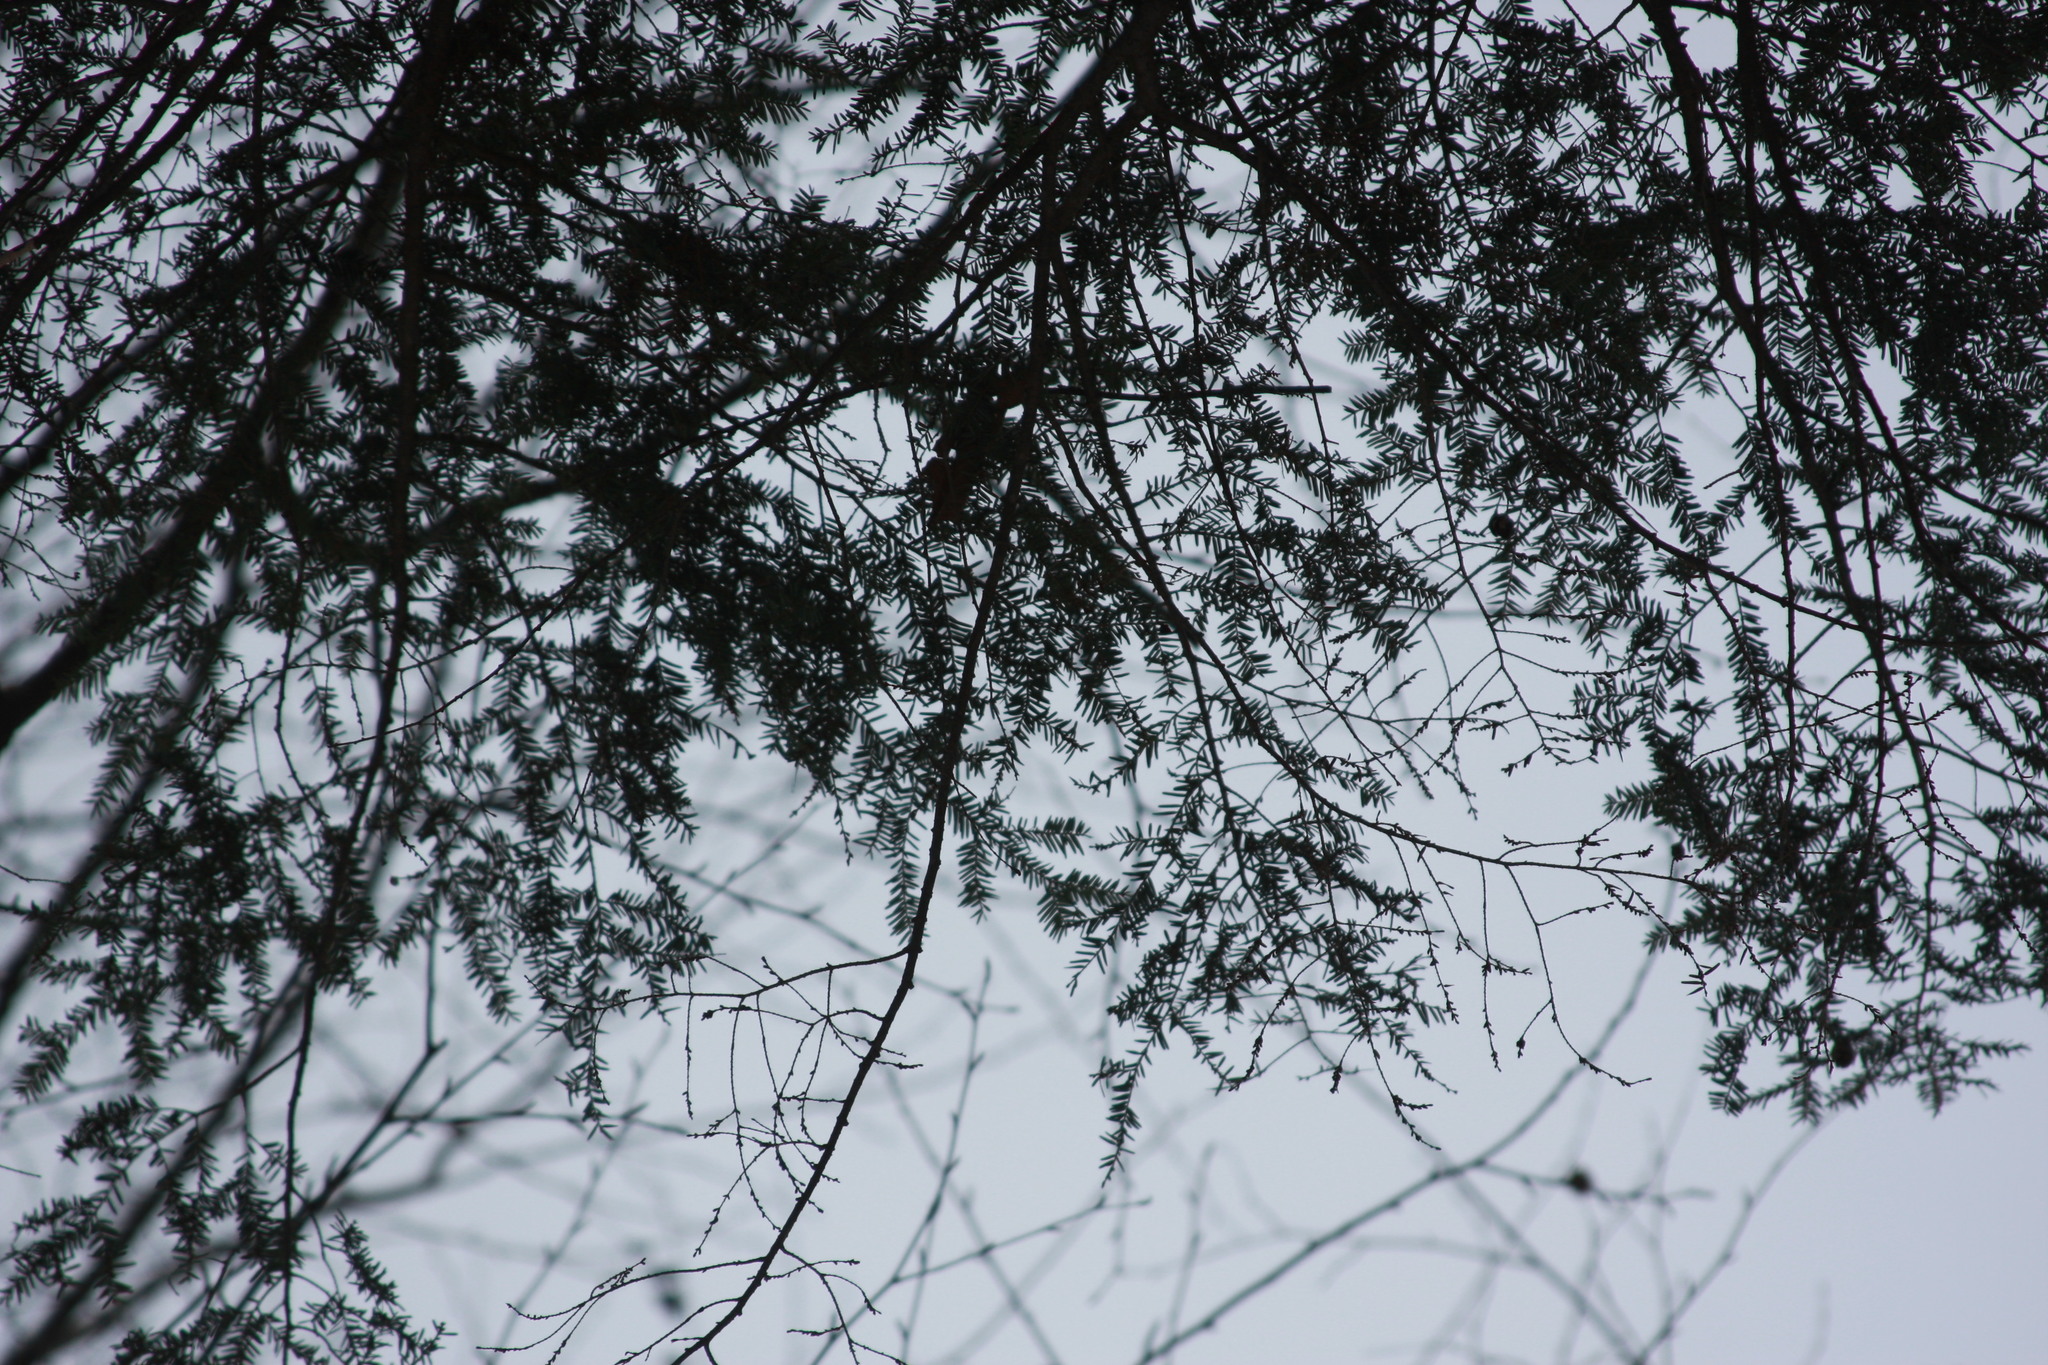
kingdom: Plantae
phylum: Tracheophyta
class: Pinopsida
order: Pinales
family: Pinaceae
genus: Tsuga
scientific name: Tsuga canadensis
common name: Eastern hemlock
